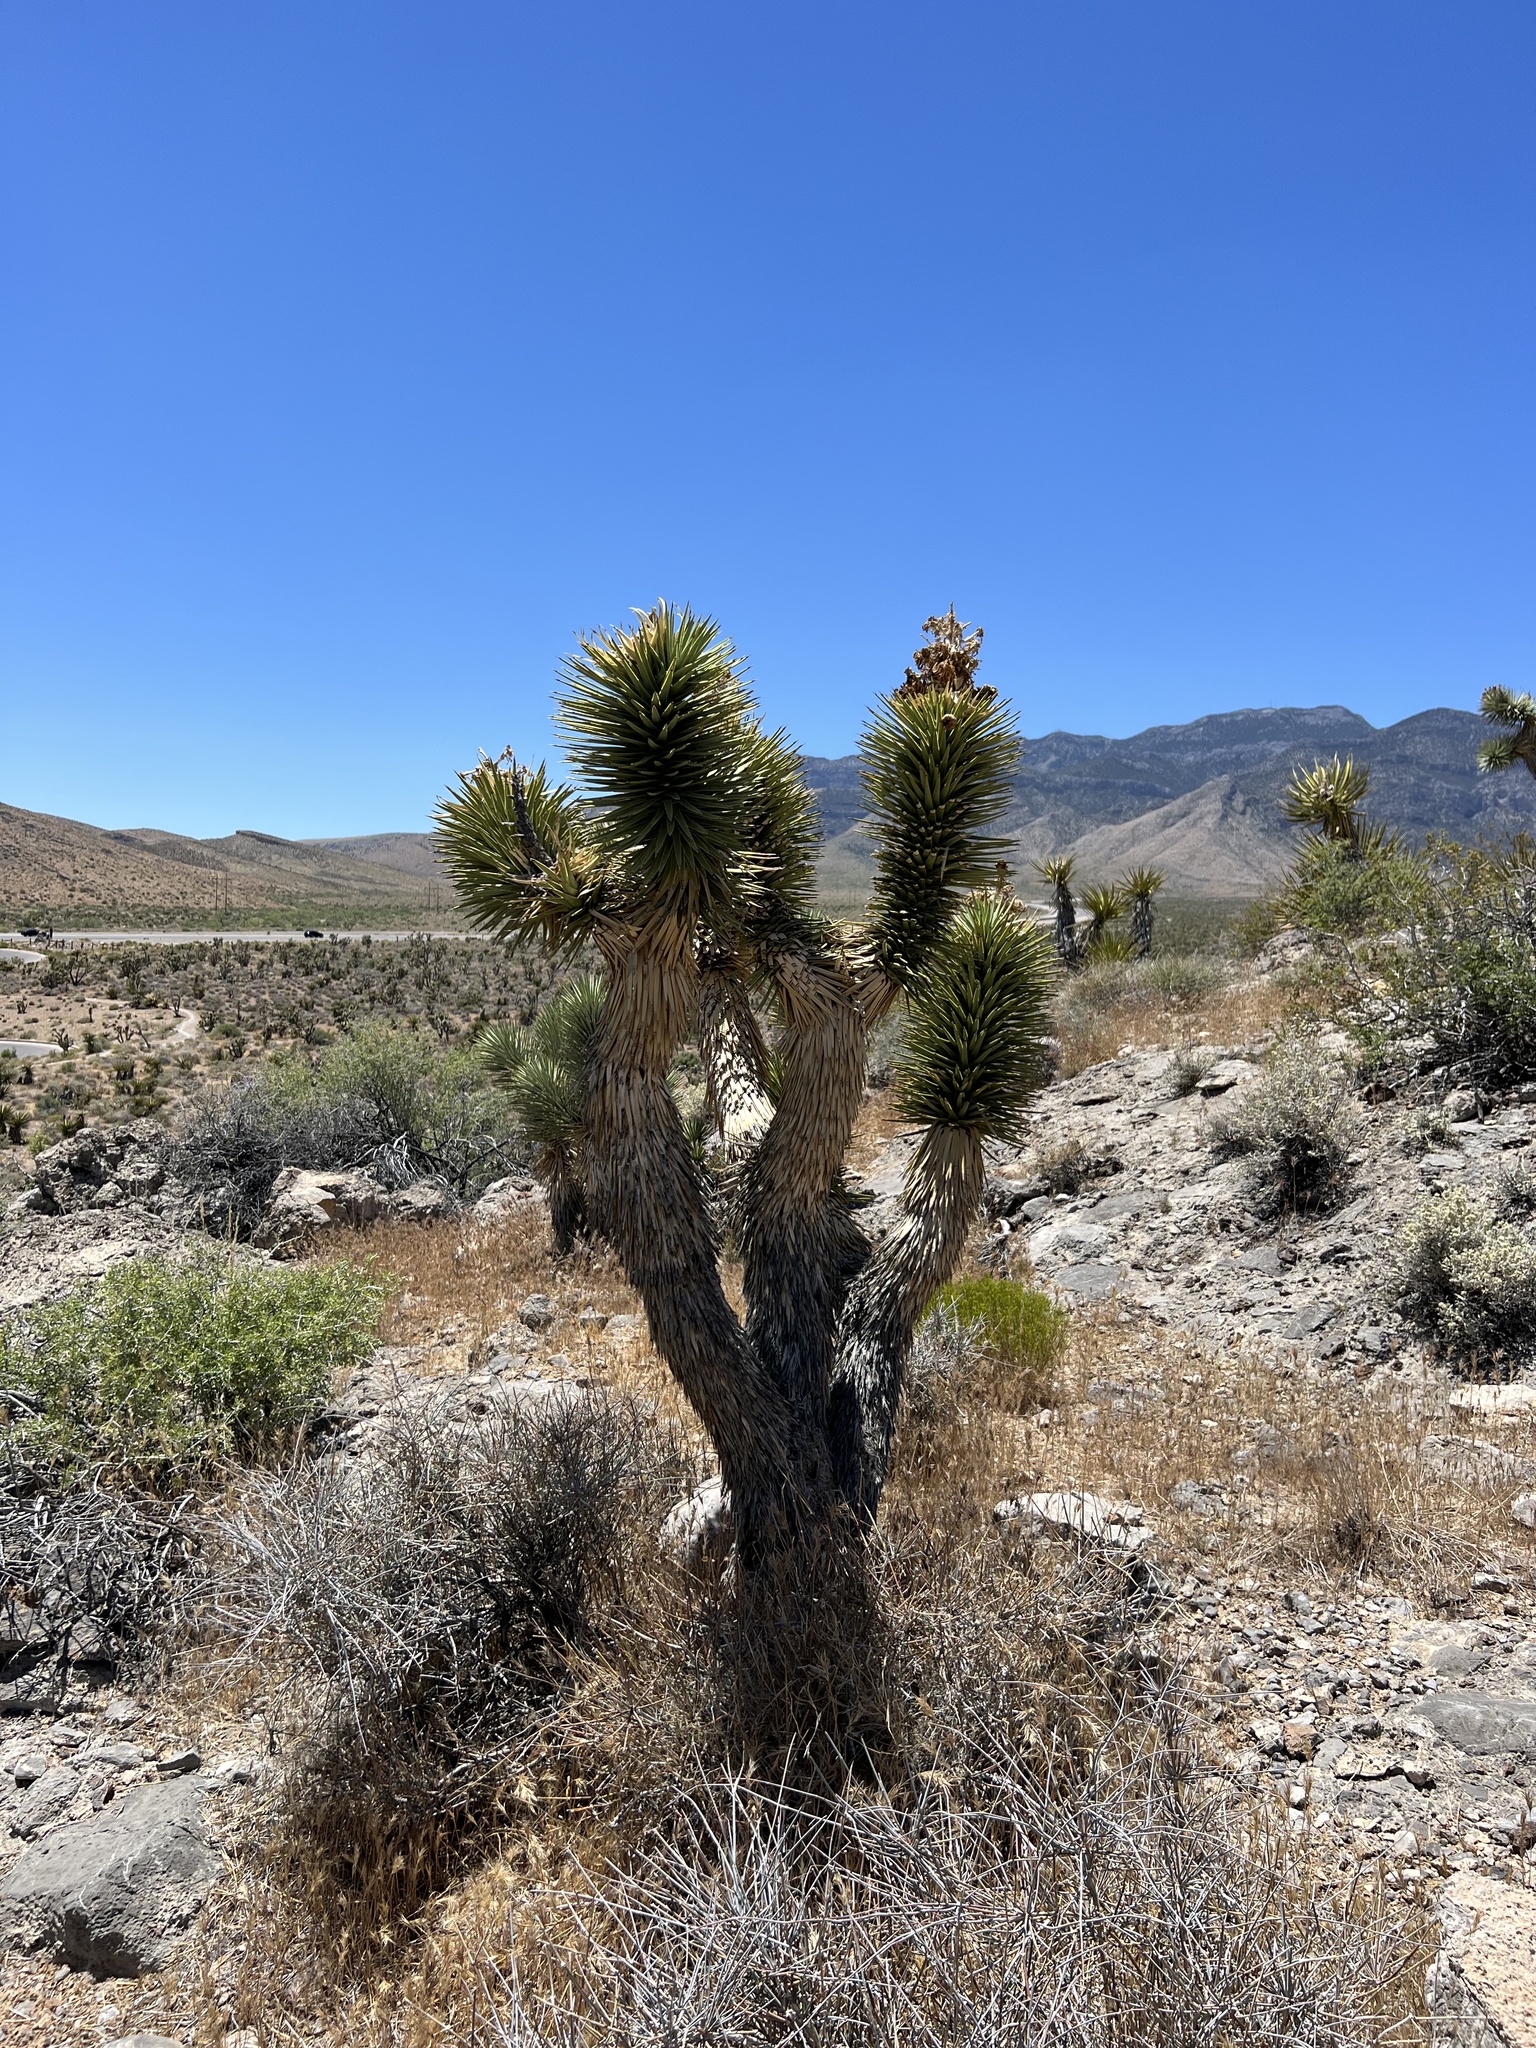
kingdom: Plantae
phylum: Tracheophyta
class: Liliopsida
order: Asparagales
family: Asparagaceae
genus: Yucca
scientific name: Yucca brevifolia
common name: Joshua tree
